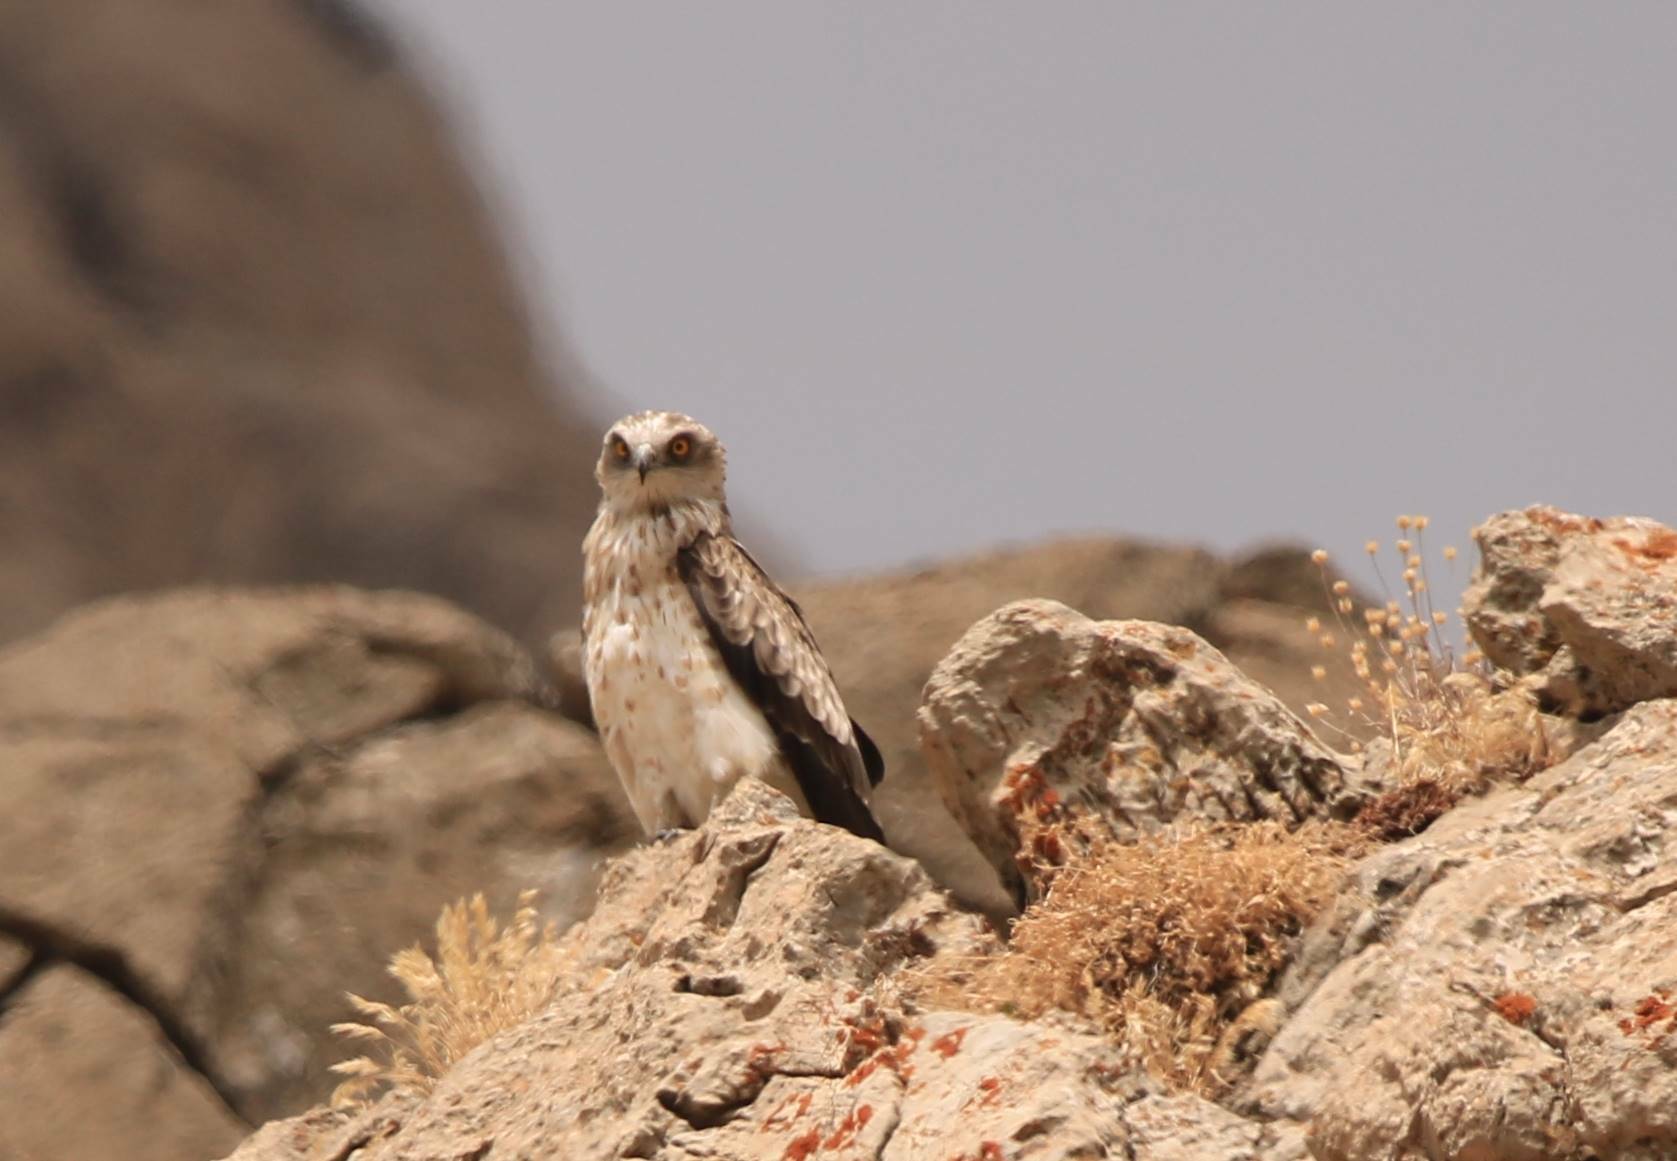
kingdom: Animalia
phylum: Chordata
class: Aves
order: Accipitriformes
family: Accipitridae
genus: Circaetus
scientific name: Circaetus gallicus
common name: Short-toed snake eagle
